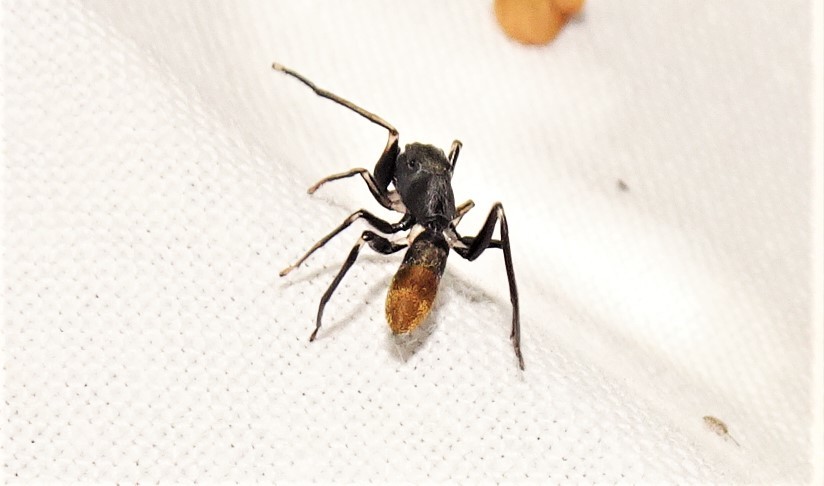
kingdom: Animalia
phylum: Arthropoda
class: Arachnida
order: Araneae
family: Salticidae
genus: Myrmarachne
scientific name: Myrmarachne luctuosa
